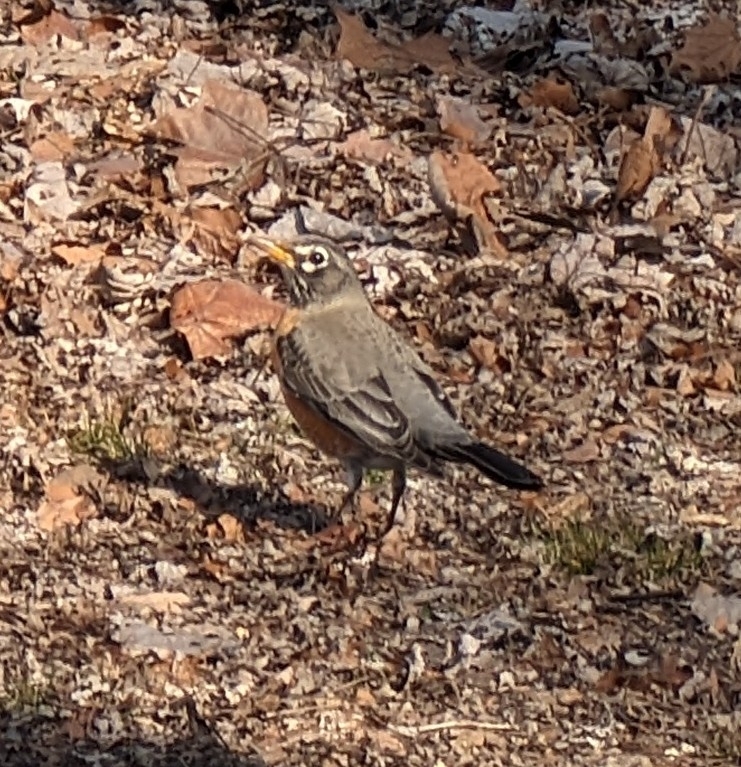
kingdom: Animalia
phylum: Chordata
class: Aves
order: Passeriformes
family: Turdidae
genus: Turdus
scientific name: Turdus migratorius
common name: American robin
